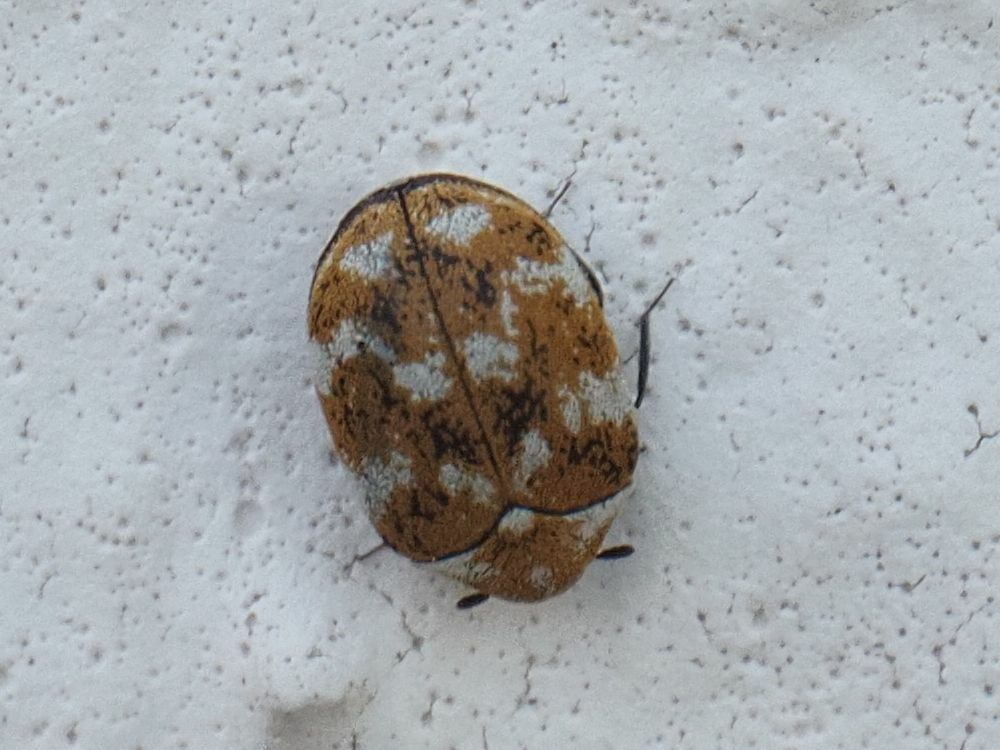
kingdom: Animalia
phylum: Arthropoda
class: Insecta
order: Coleoptera
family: Dermestidae
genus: Anthrenus
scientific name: Anthrenus verbasci
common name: Varied carpet beetle
